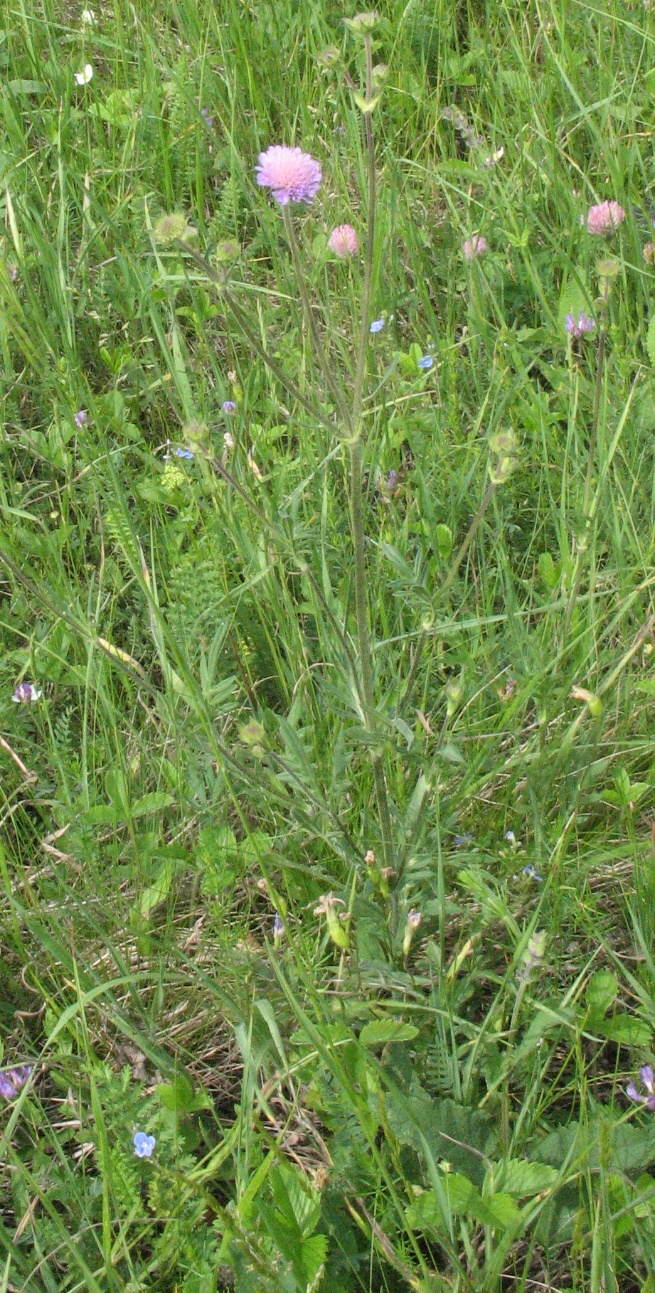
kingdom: Plantae
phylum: Tracheophyta
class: Magnoliopsida
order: Dipsacales
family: Caprifoliaceae
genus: Knautia
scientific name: Knautia arvensis
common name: Field scabiosa
